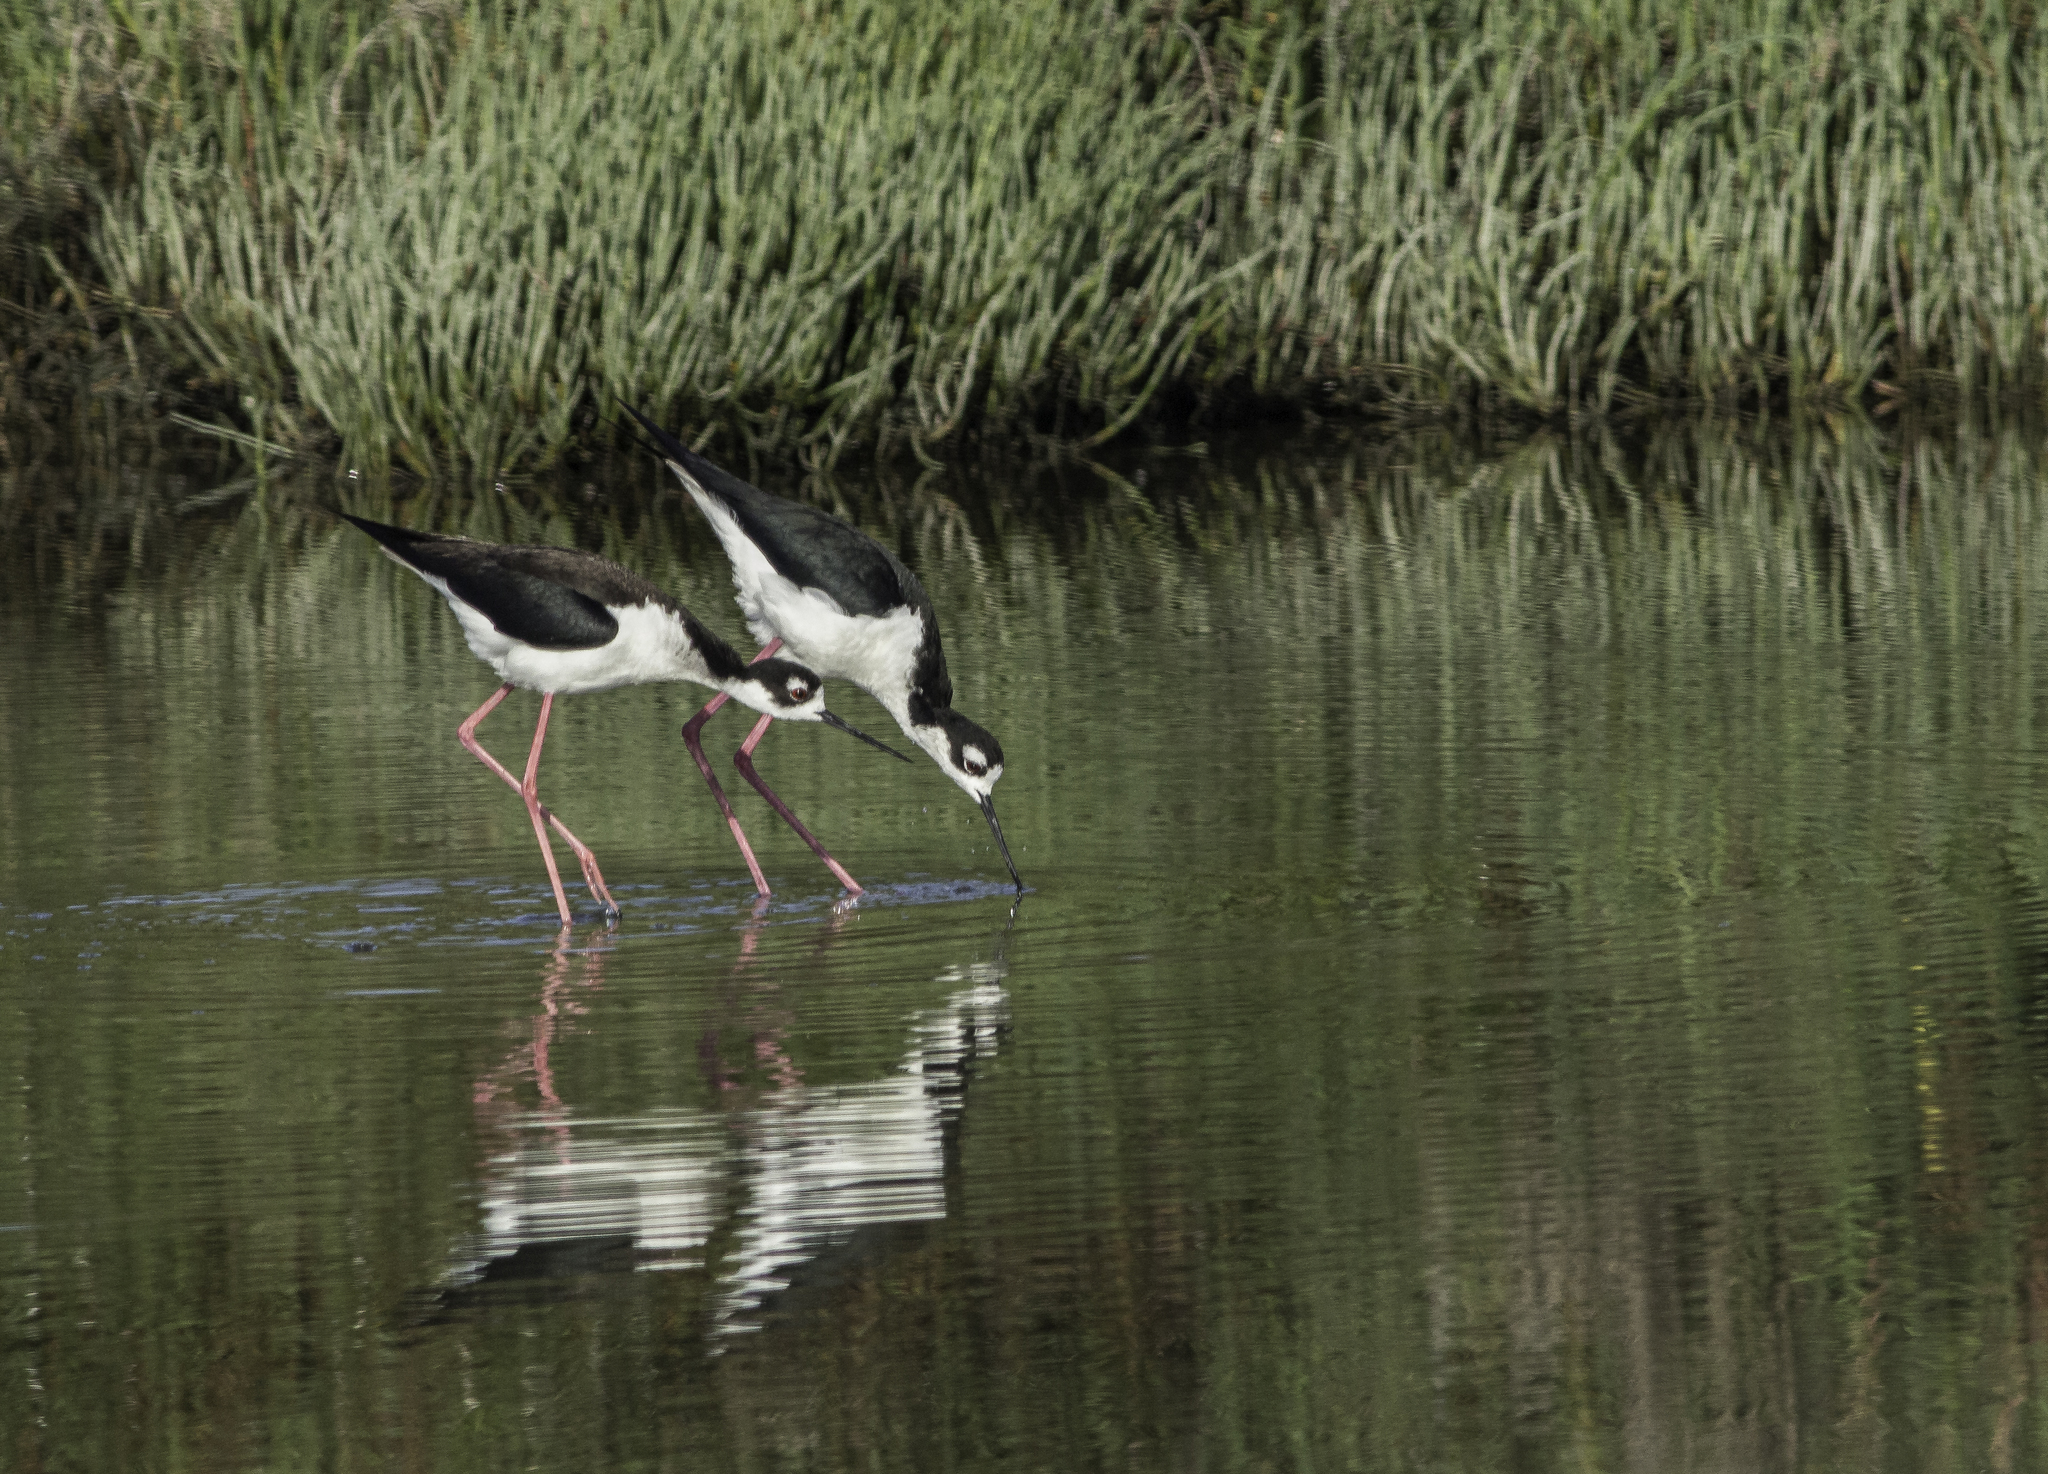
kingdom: Animalia
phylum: Chordata
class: Aves
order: Charadriiformes
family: Recurvirostridae
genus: Himantopus
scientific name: Himantopus mexicanus
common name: Black-necked stilt
